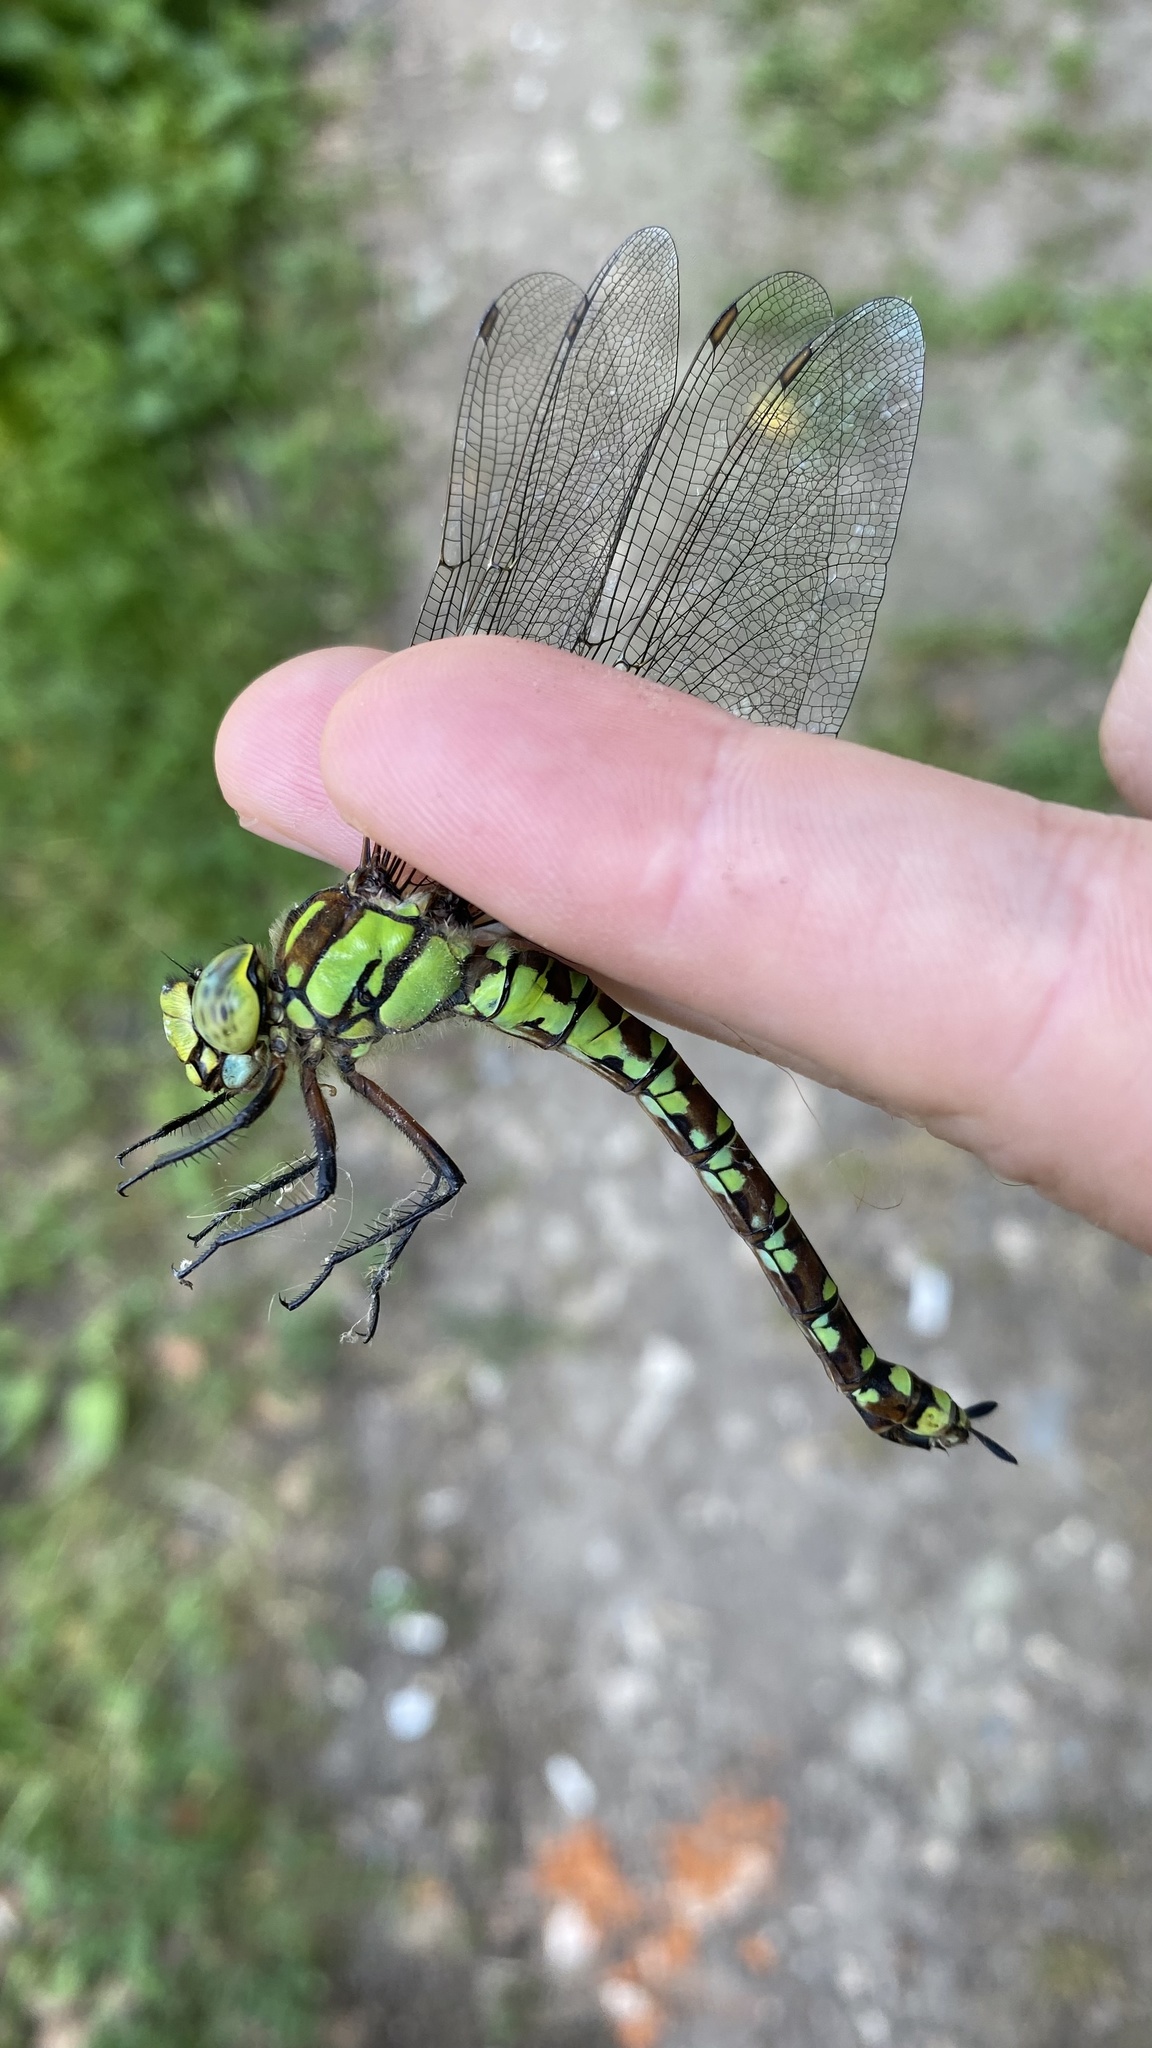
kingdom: Animalia
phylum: Arthropoda
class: Insecta
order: Odonata
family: Aeshnidae
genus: Aeshna
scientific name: Aeshna cyanea
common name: Southern hawker
